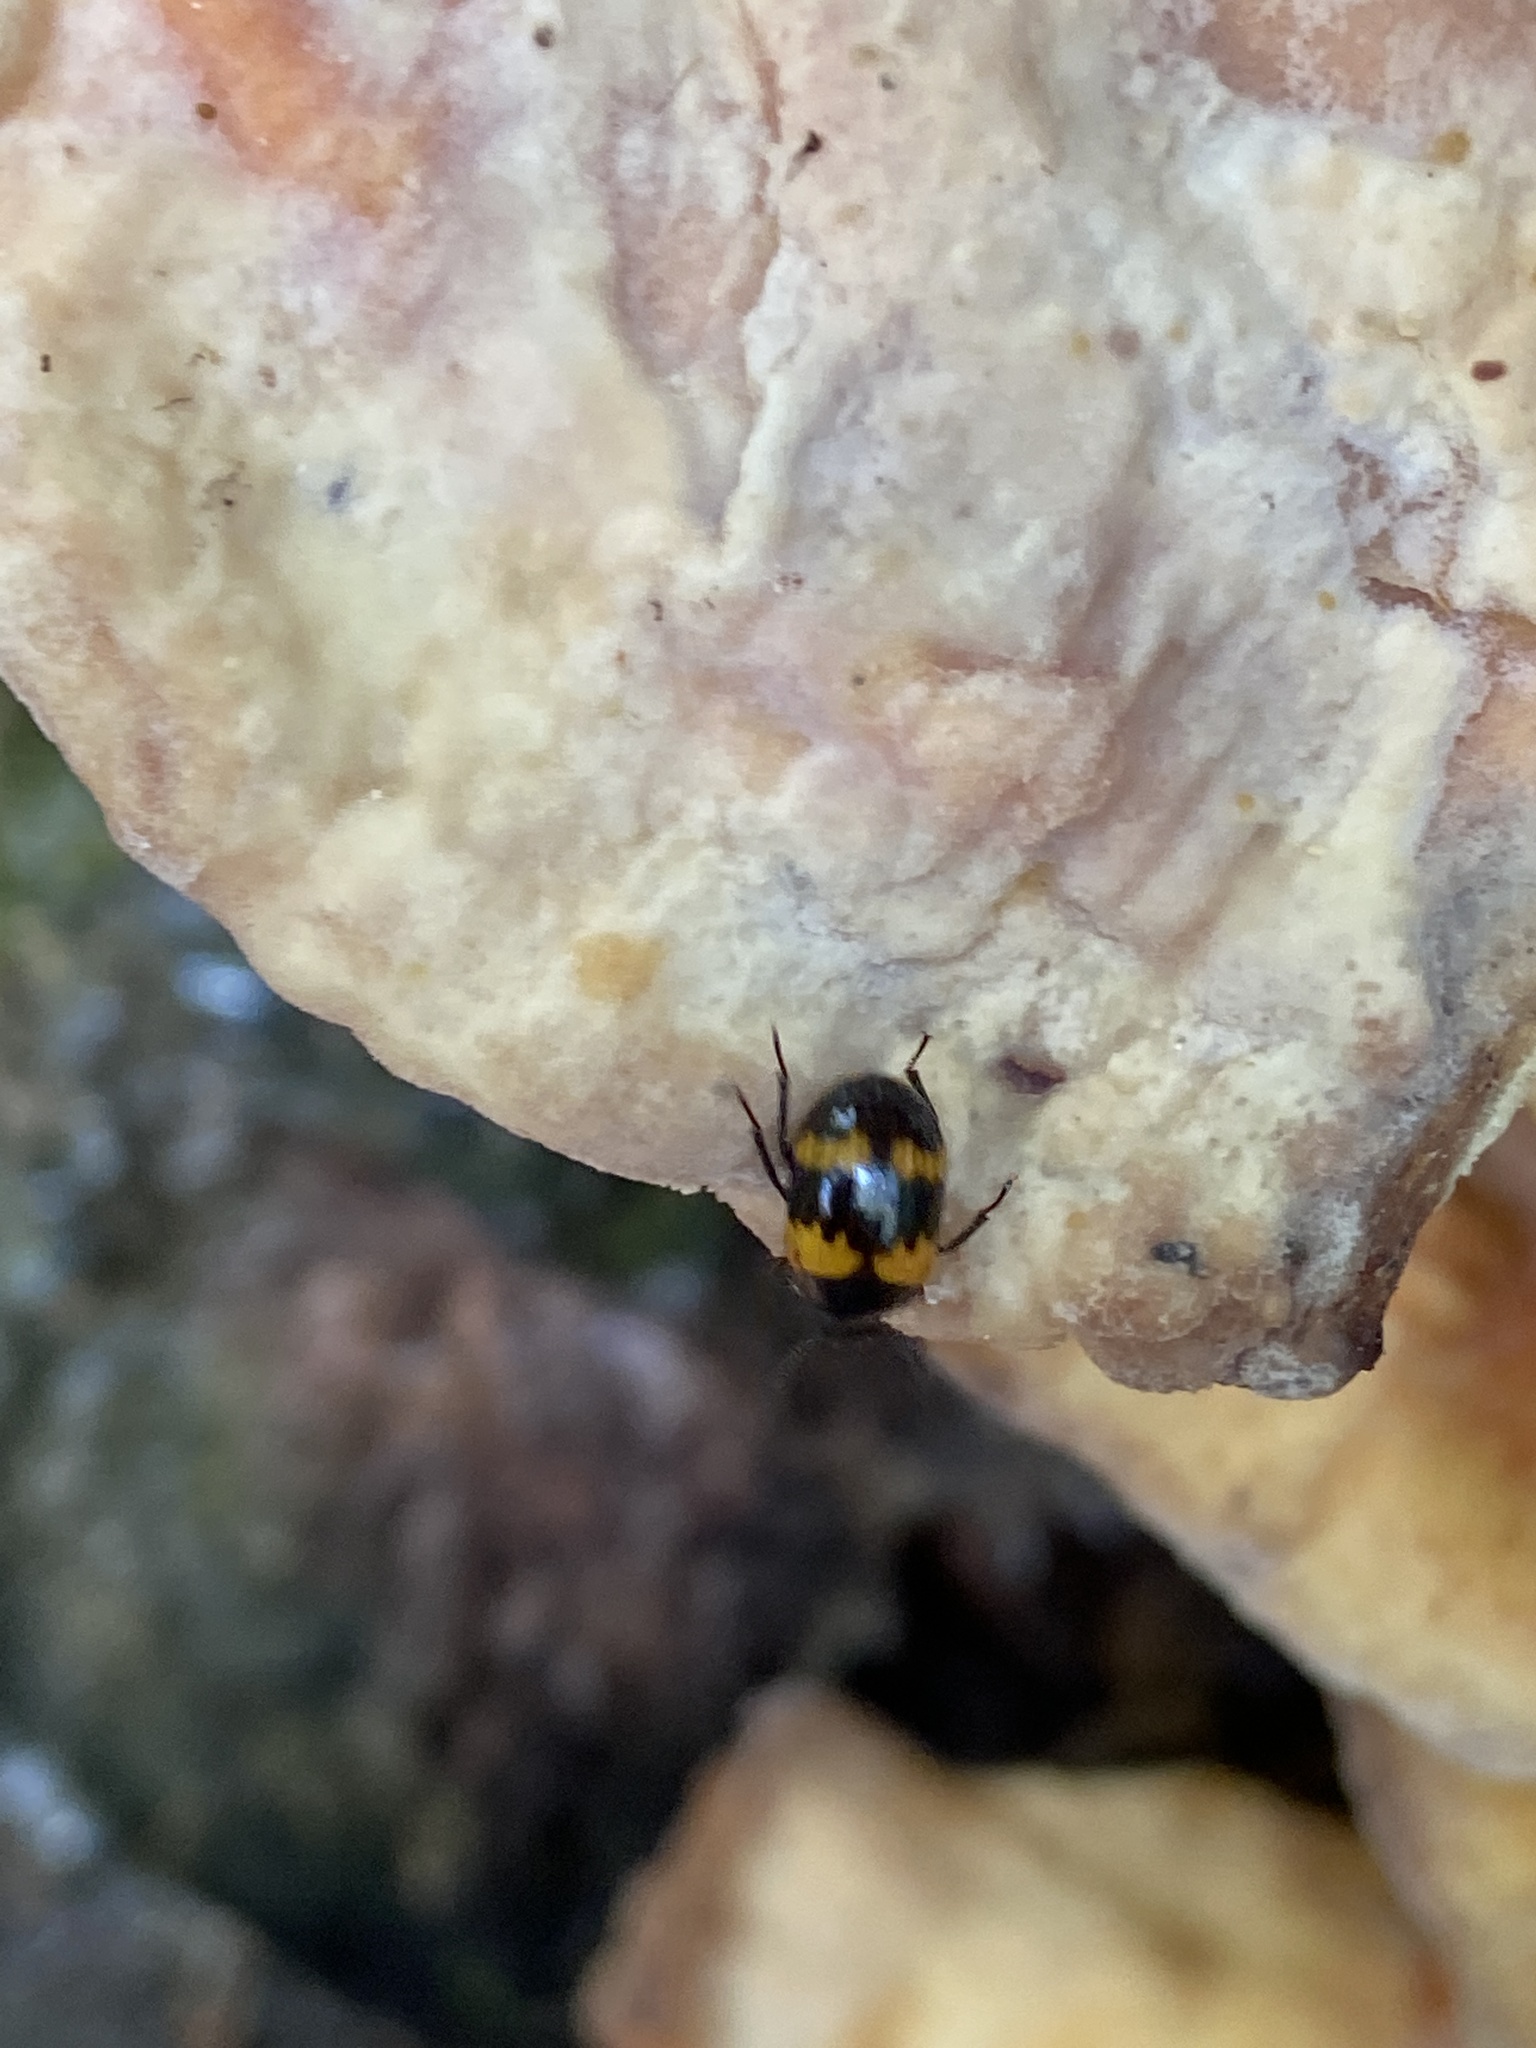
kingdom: Animalia
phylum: Arthropoda
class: Insecta
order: Coleoptera
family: Tenebrionidae
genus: Diaperis
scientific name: Diaperis boleti
